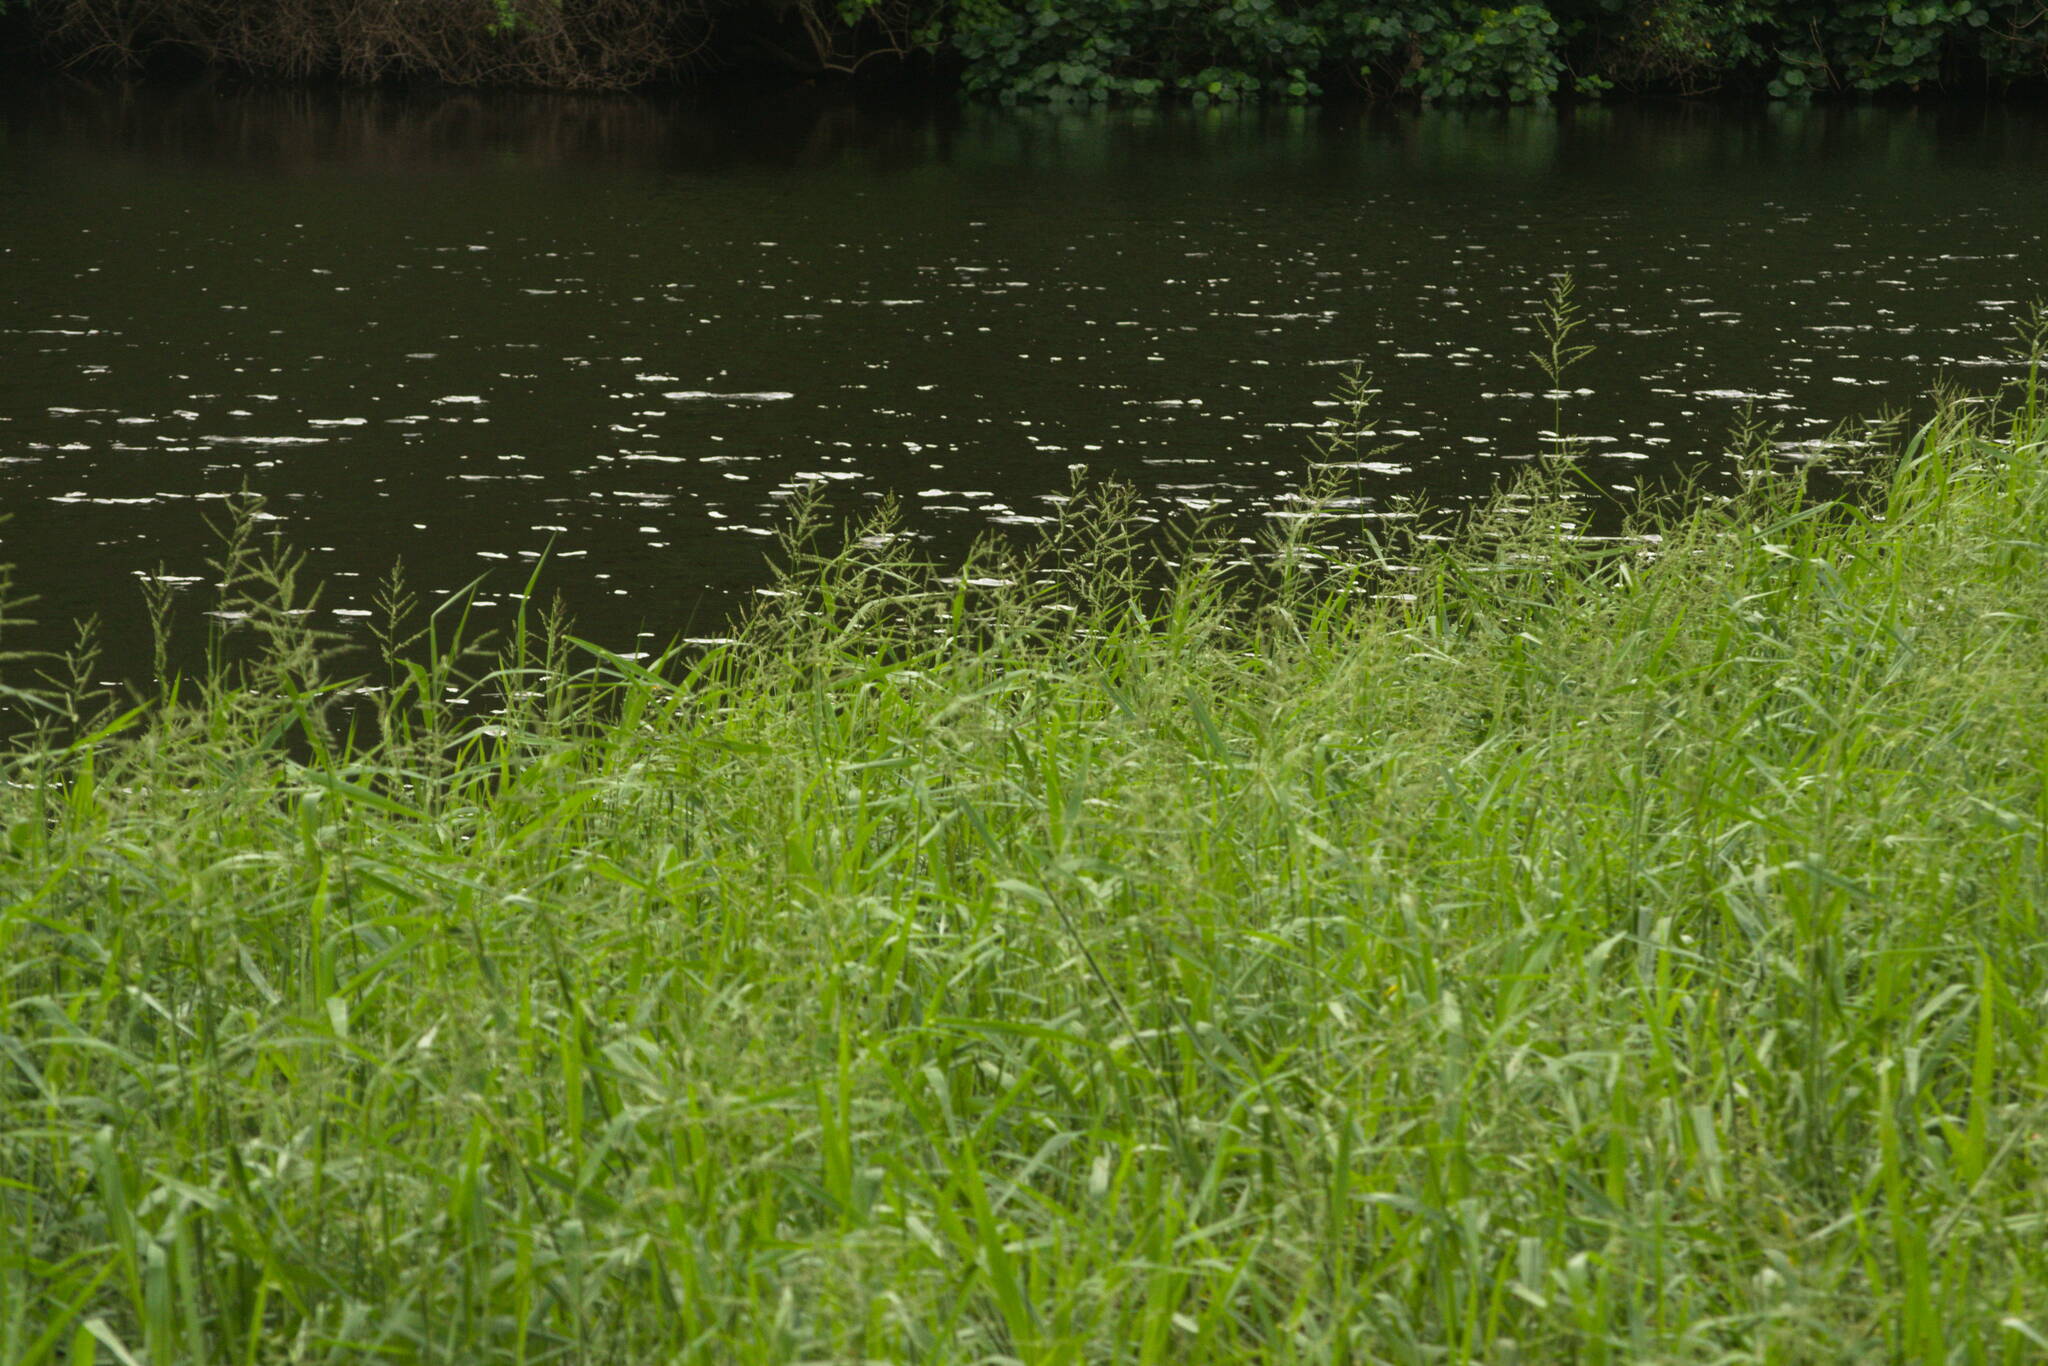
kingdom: Plantae
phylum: Tracheophyta
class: Liliopsida
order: Poales
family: Poaceae
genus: Urochloa
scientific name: Urochloa mutica
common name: Para grass
